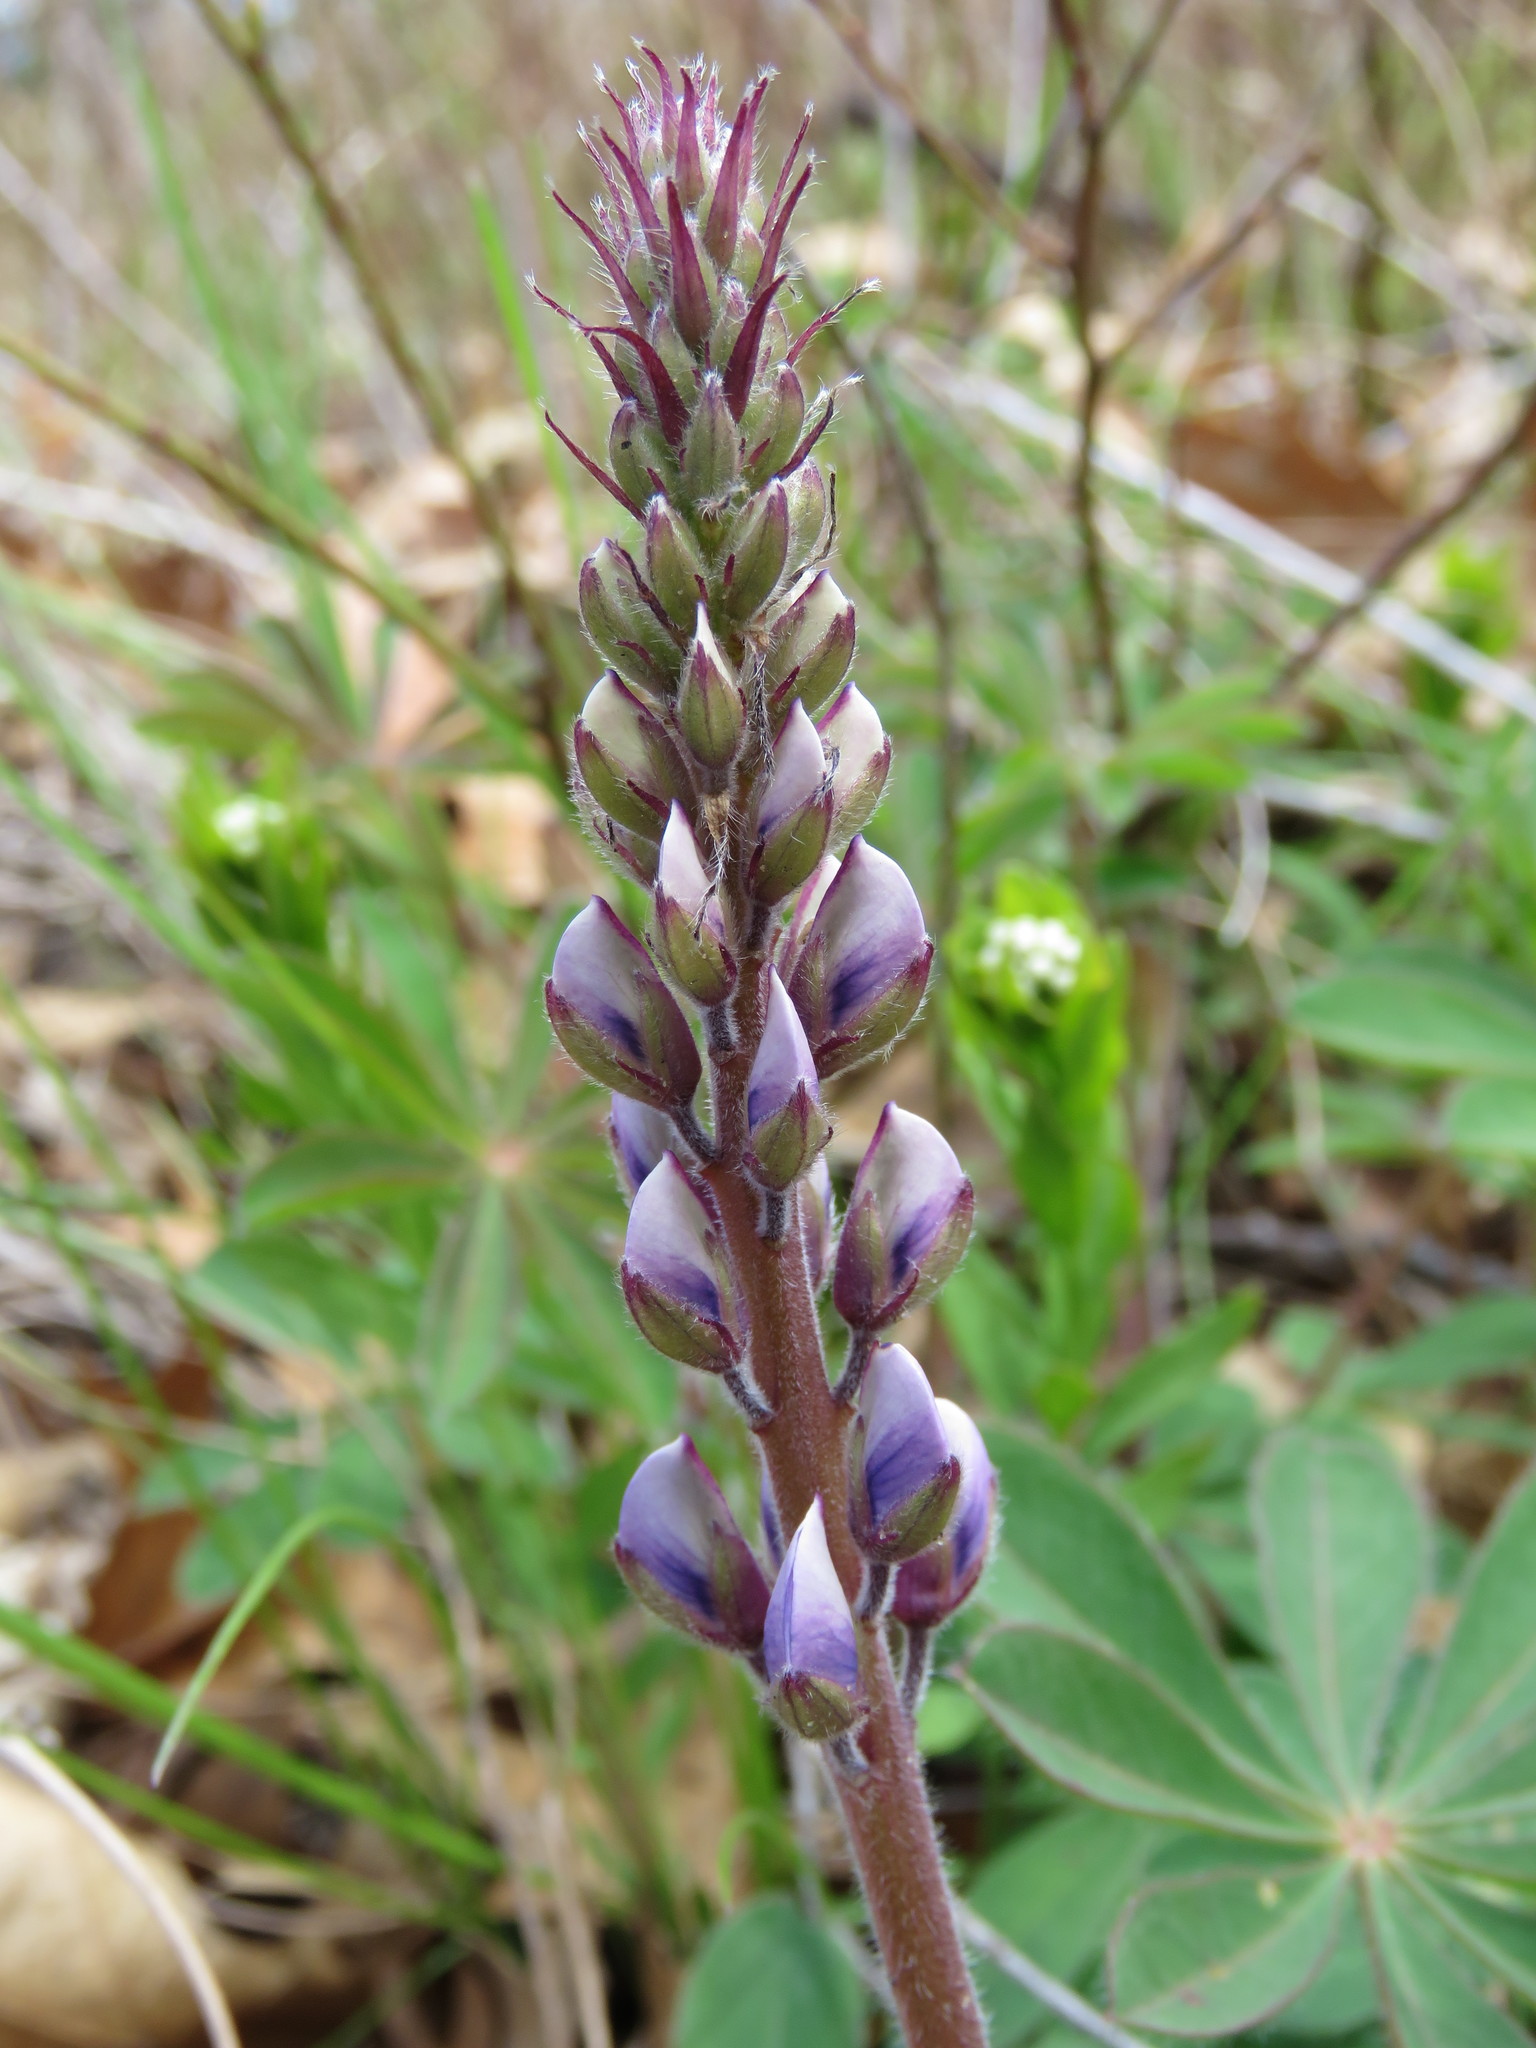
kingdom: Plantae
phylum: Tracheophyta
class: Magnoliopsida
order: Fabales
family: Fabaceae
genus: Lupinus
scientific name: Lupinus perennis
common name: Sundial lupine
